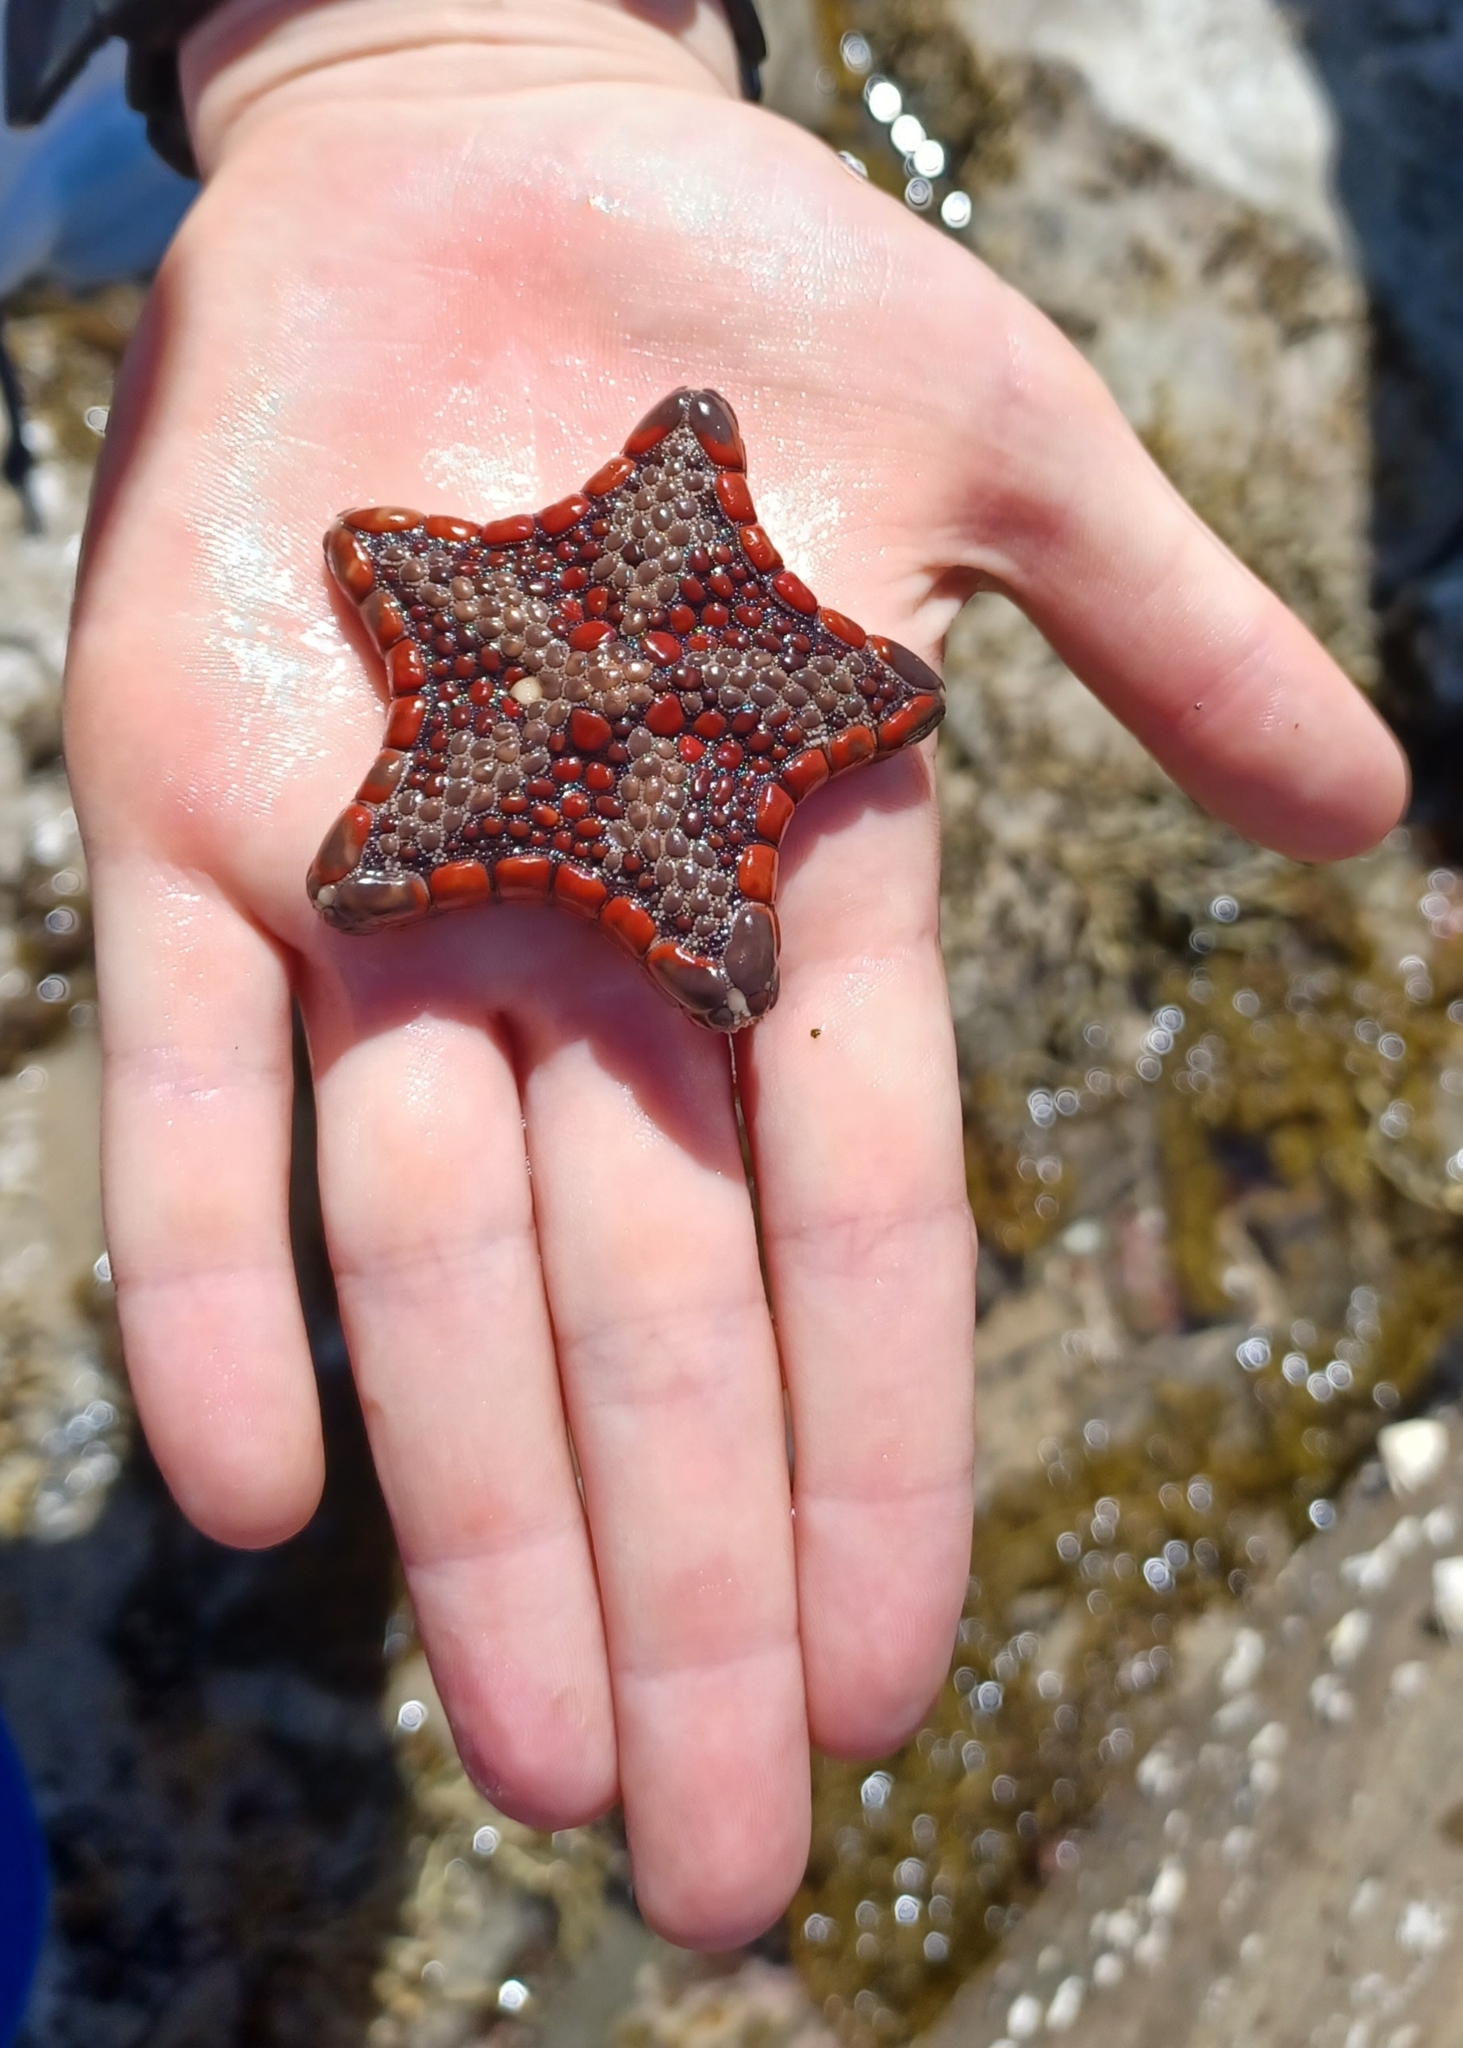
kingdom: Animalia
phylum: Echinodermata
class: Asteroidea
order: Valvatida
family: Goniasteridae
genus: Tosia
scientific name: Tosia neossia
